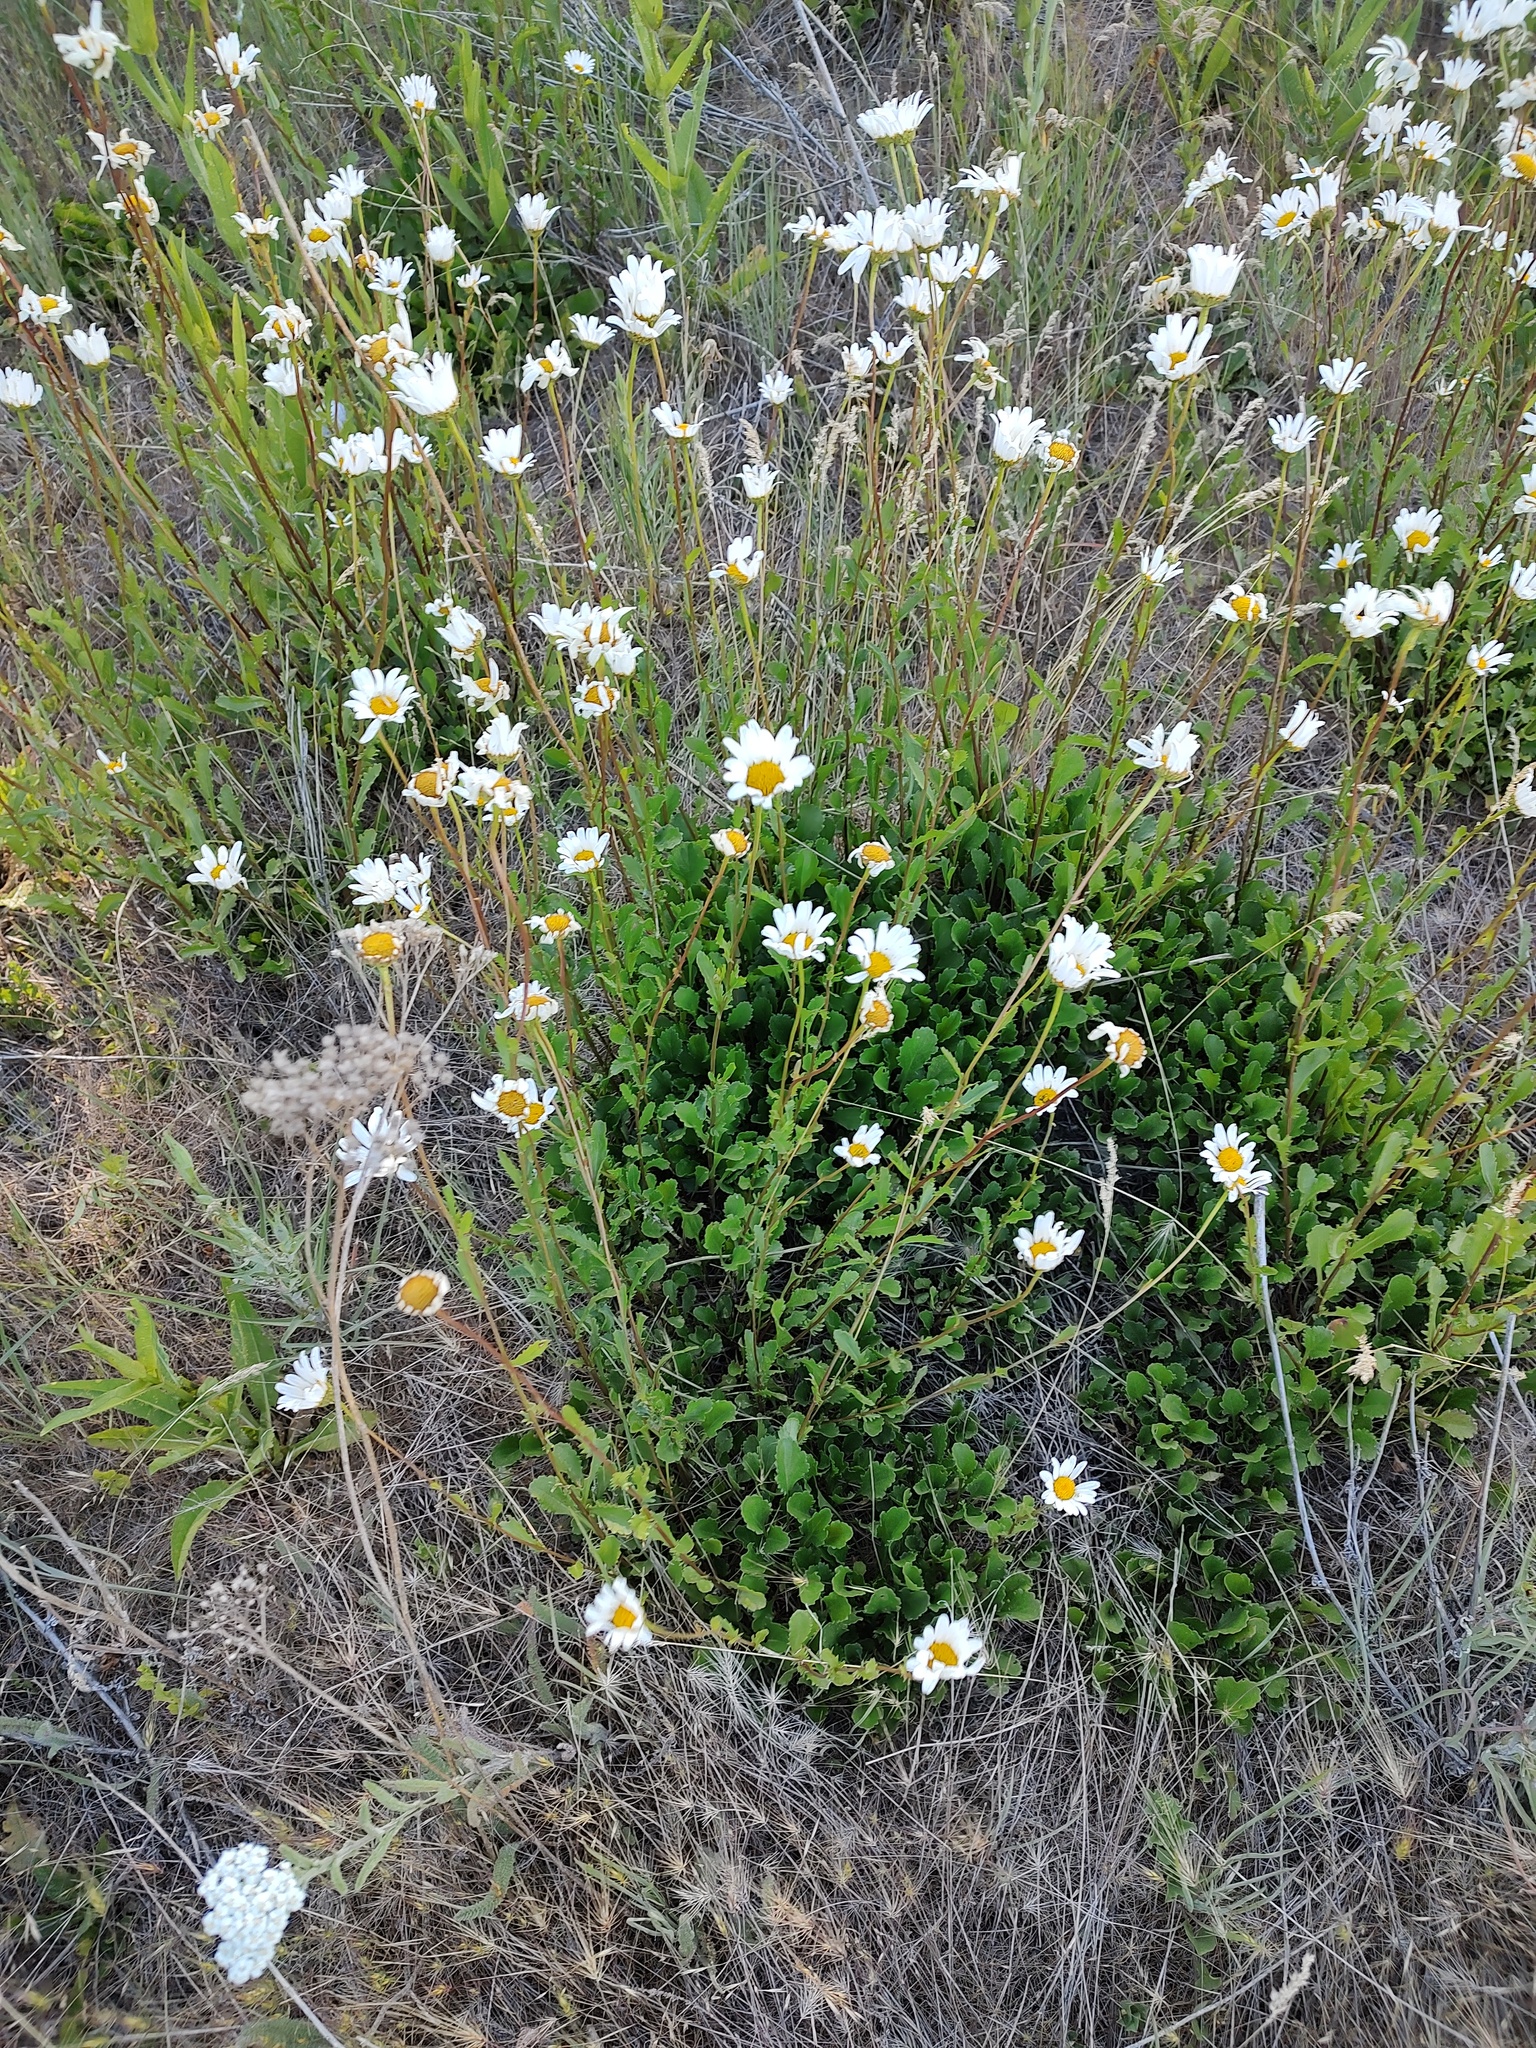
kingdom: Plantae
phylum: Tracheophyta
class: Magnoliopsida
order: Asterales
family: Asteraceae
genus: Leucanthemum
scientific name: Leucanthemum vulgare
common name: Oxeye daisy
